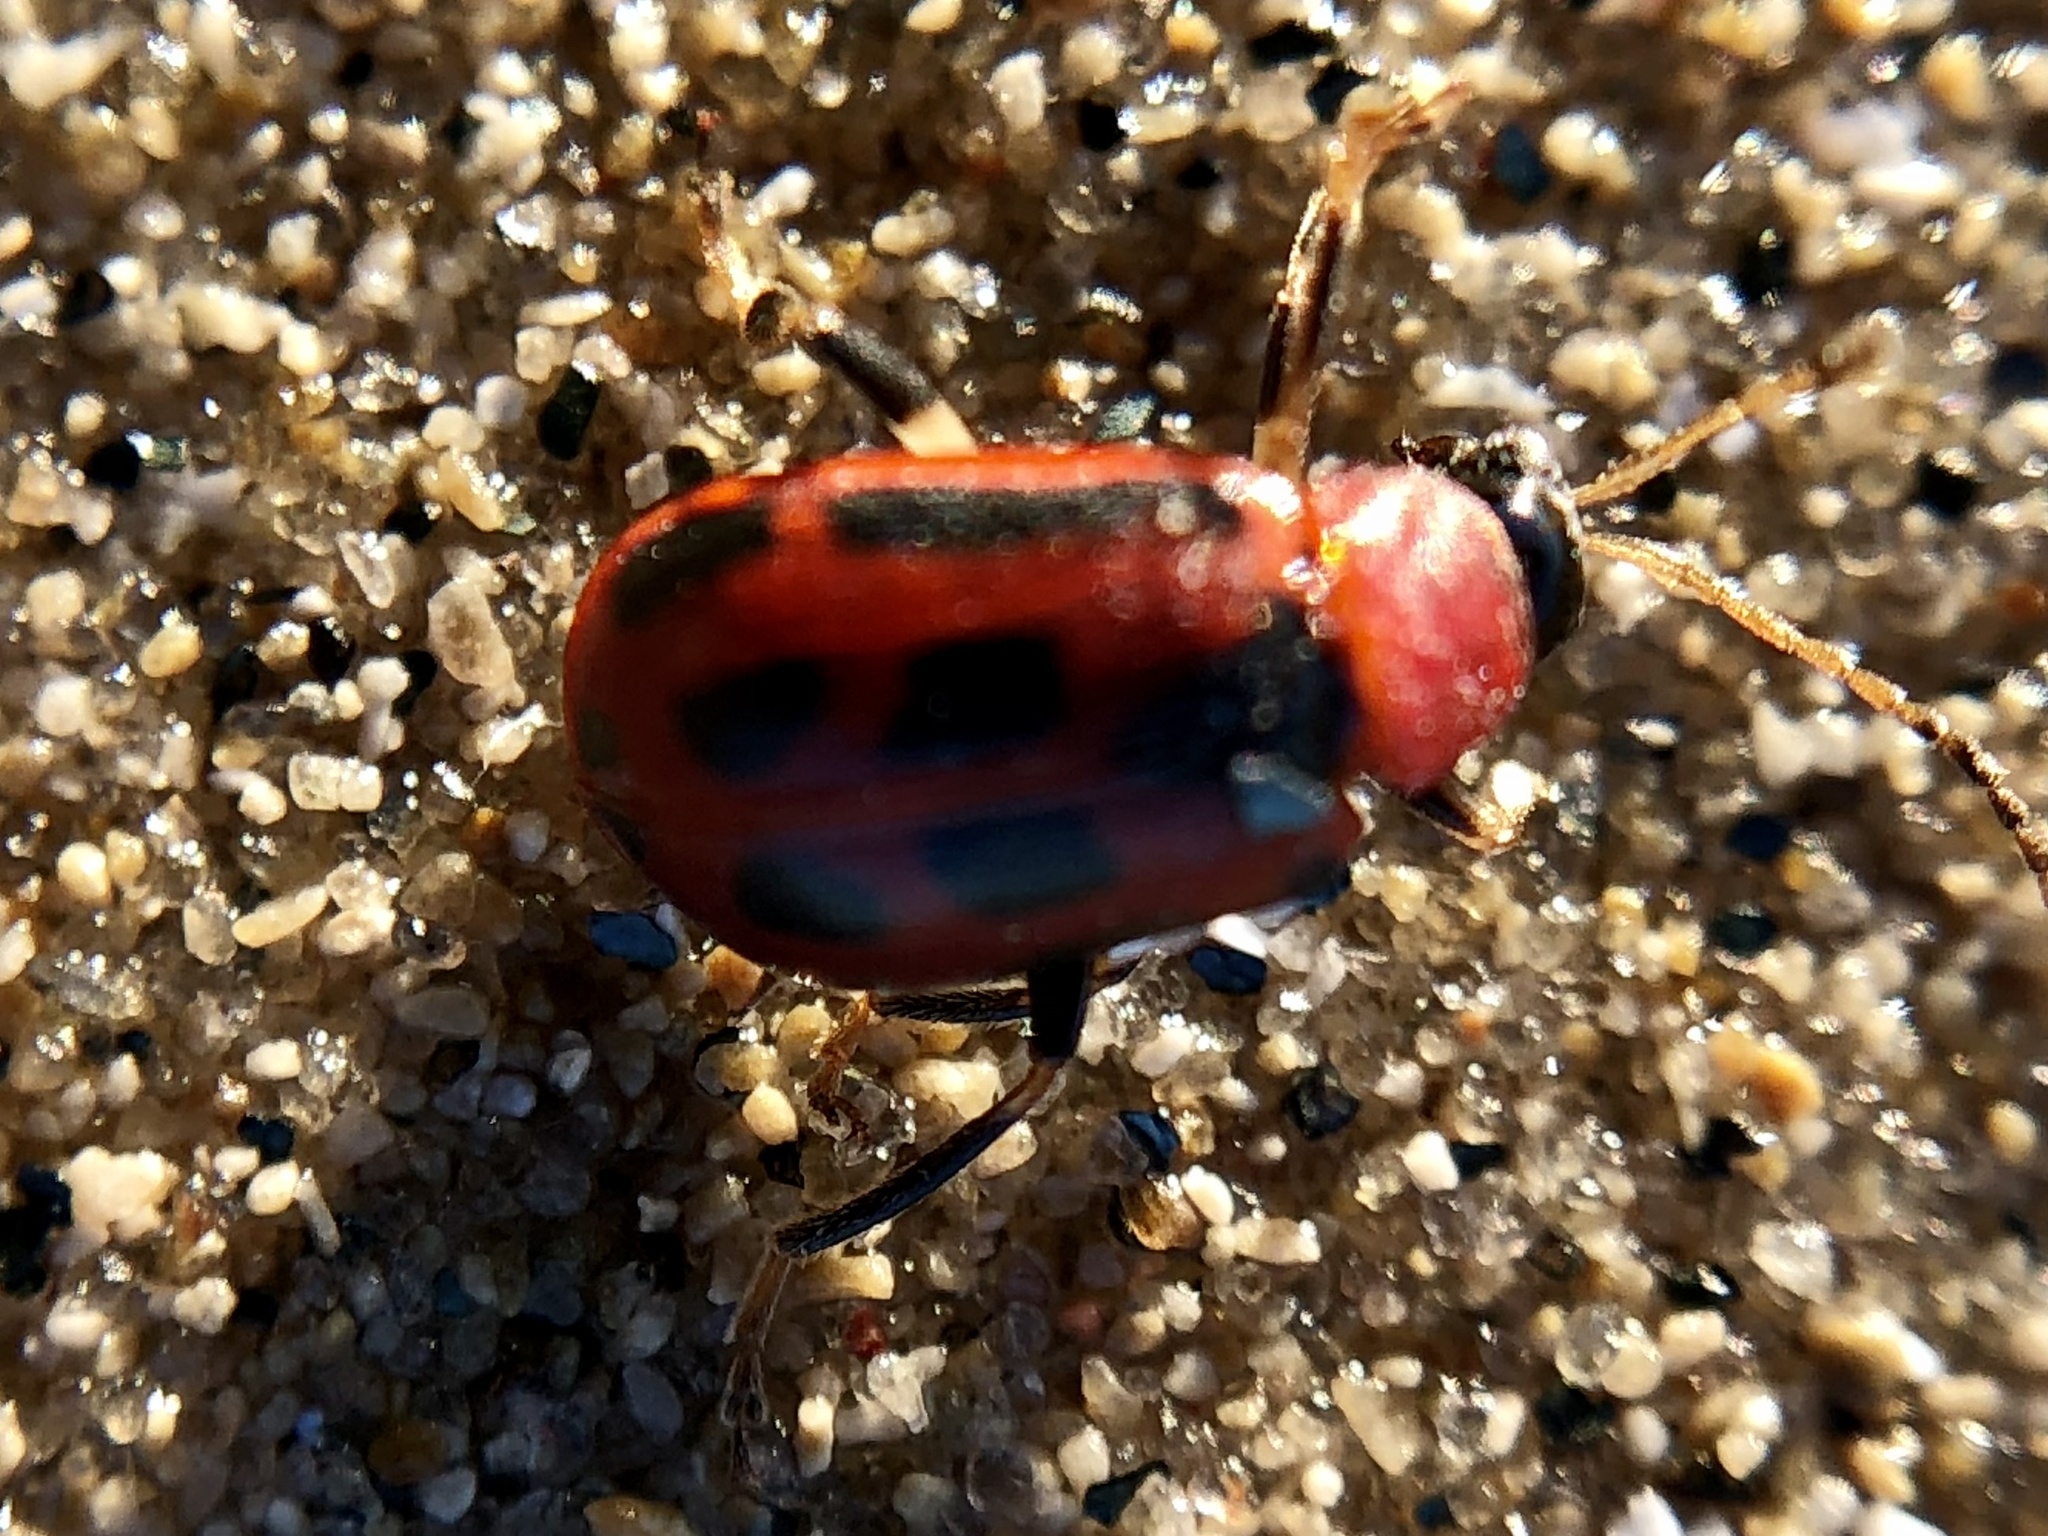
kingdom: Animalia
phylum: Arthropoda
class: Insecta
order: Coleoptera
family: Chrysomelidae
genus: Cerotoma
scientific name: Cerotoma trifurcata
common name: Bean leaf beetle
